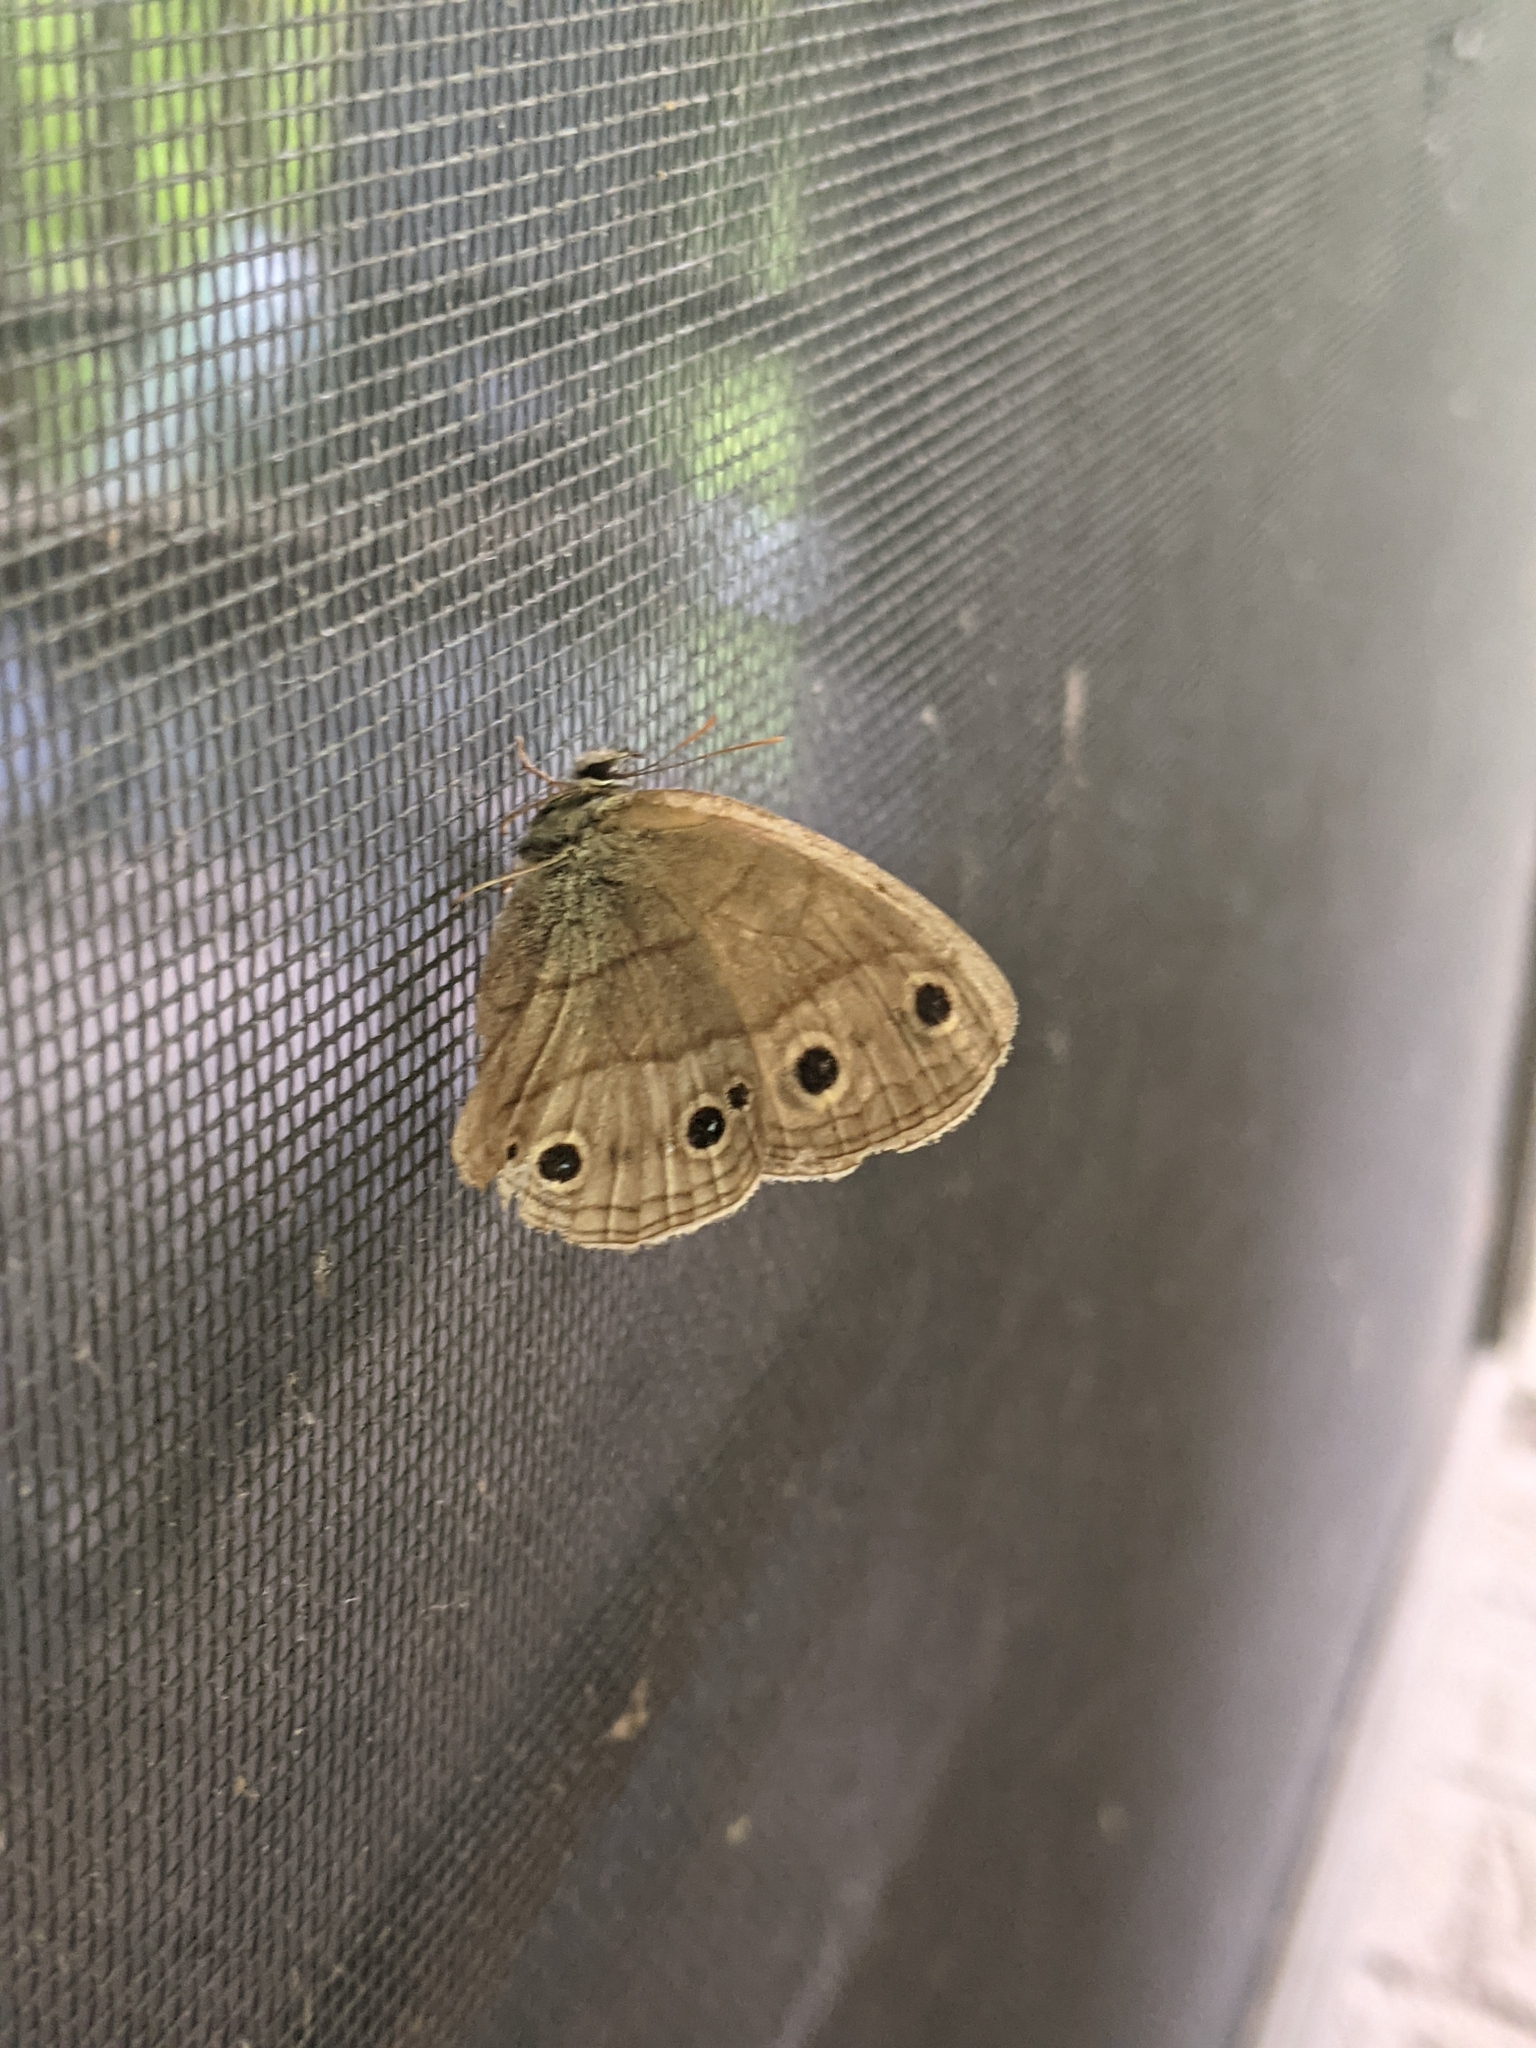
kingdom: Animalia
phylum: Arthropoda
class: Insecta
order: Lepidoptera
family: Nymphalidae
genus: Euptychia
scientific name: Euptychia cymela
